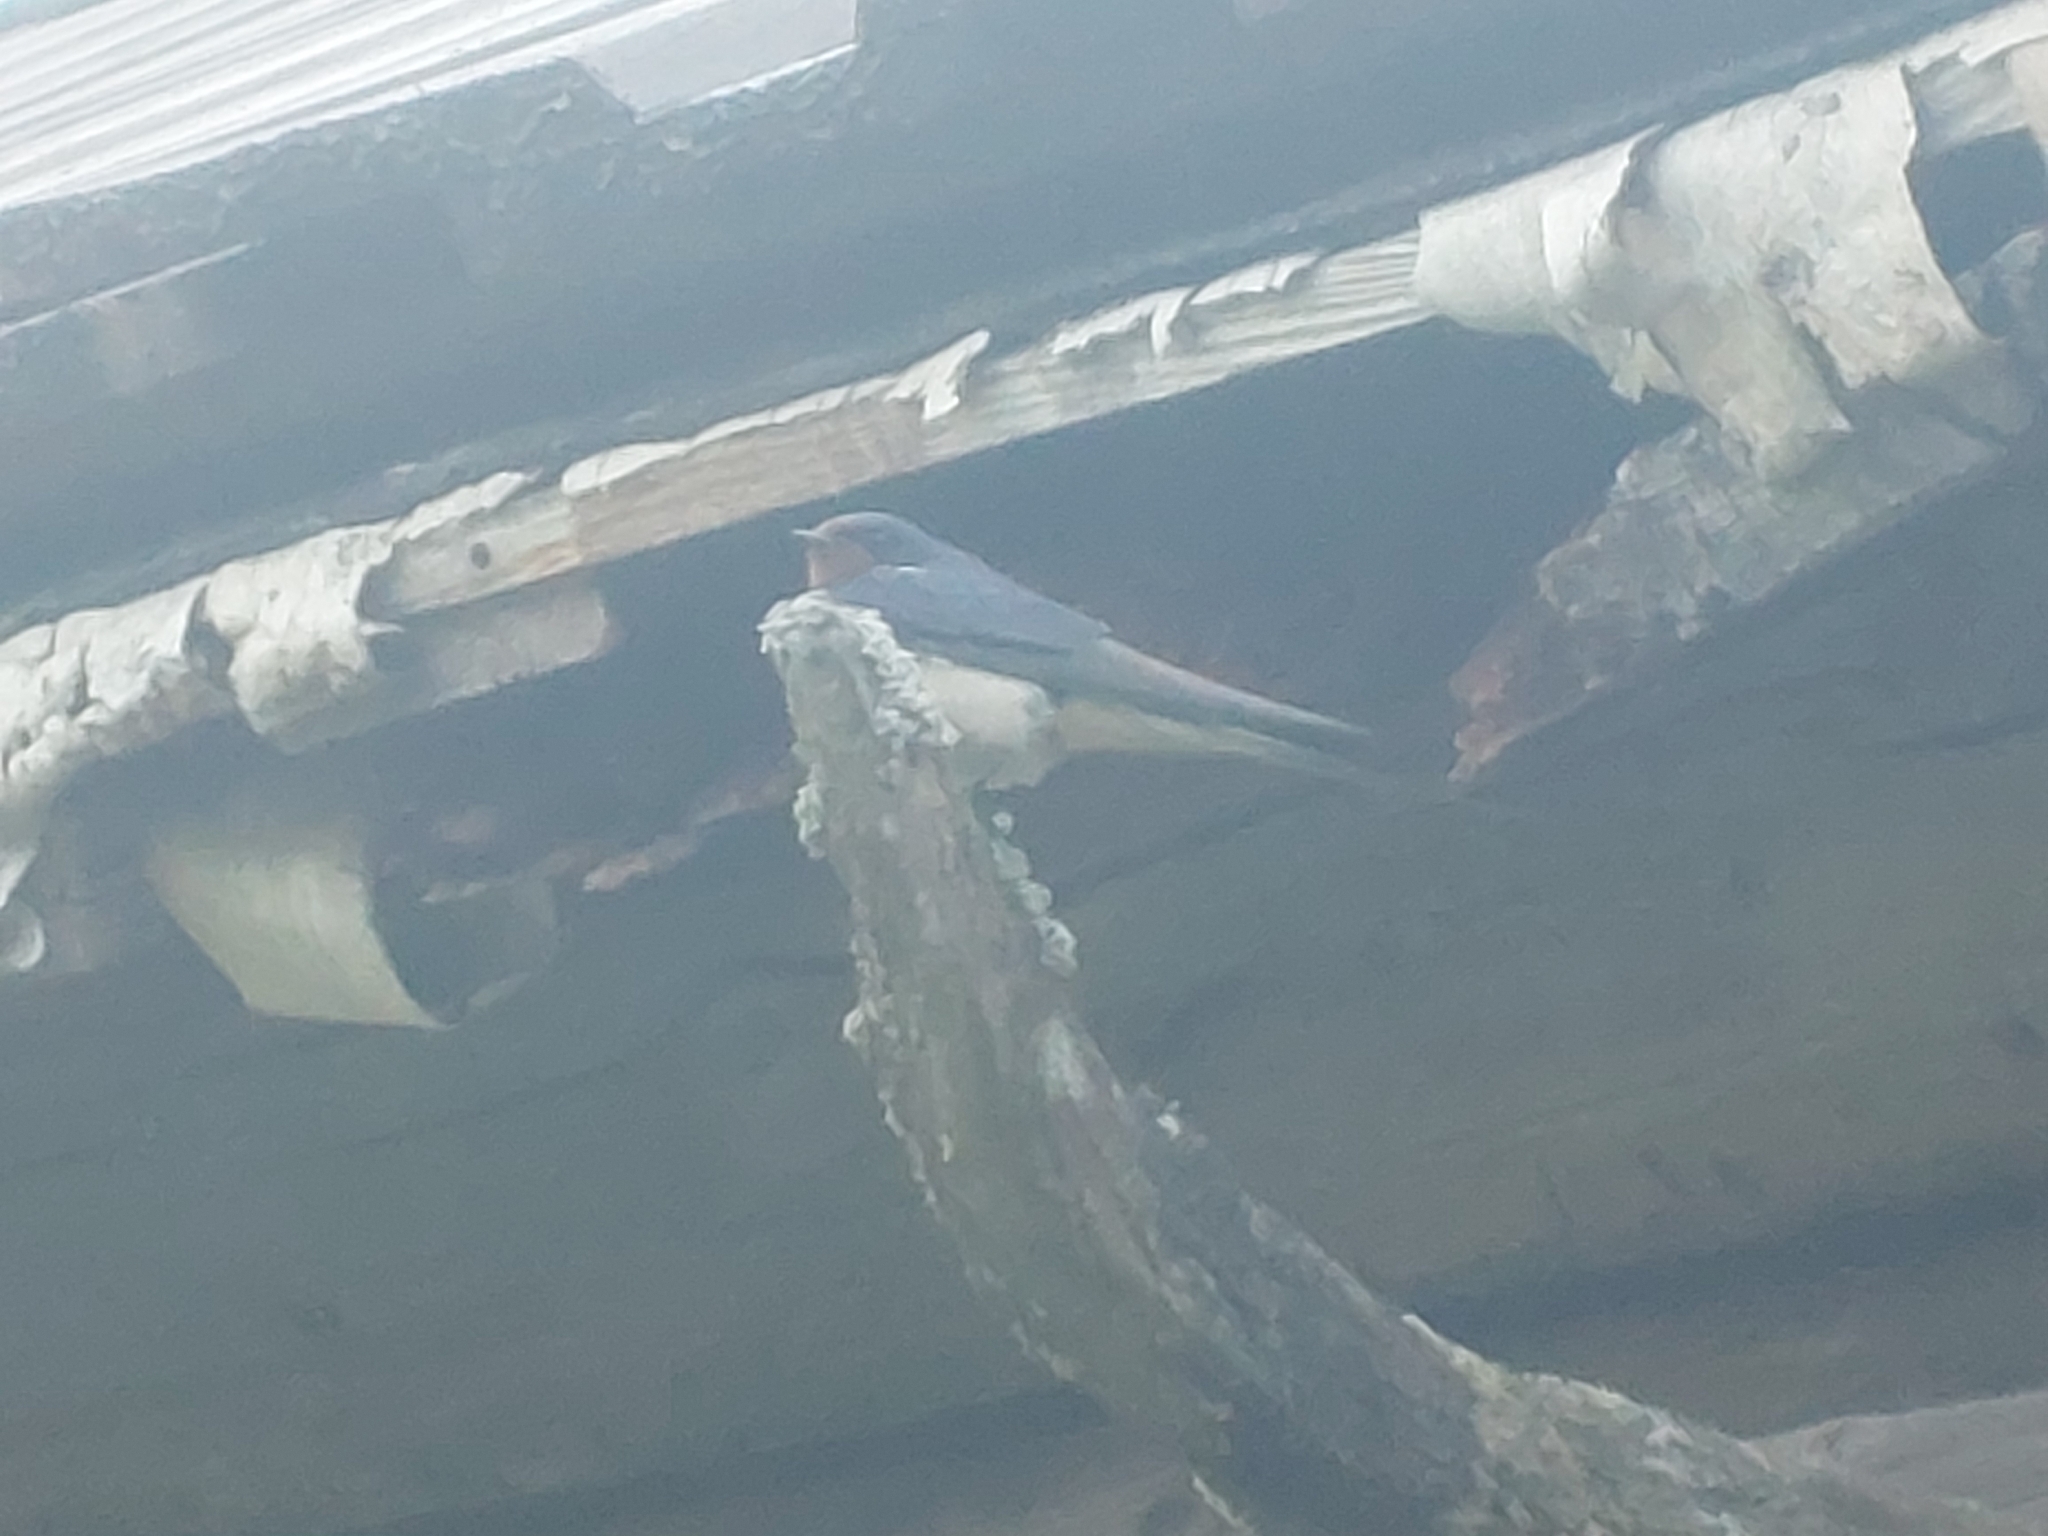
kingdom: Animalia
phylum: Chordata
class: Aves
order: Passeriformes
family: Hirundinidae
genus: Hirundo
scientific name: Hirundo rustica
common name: Barn swallow
